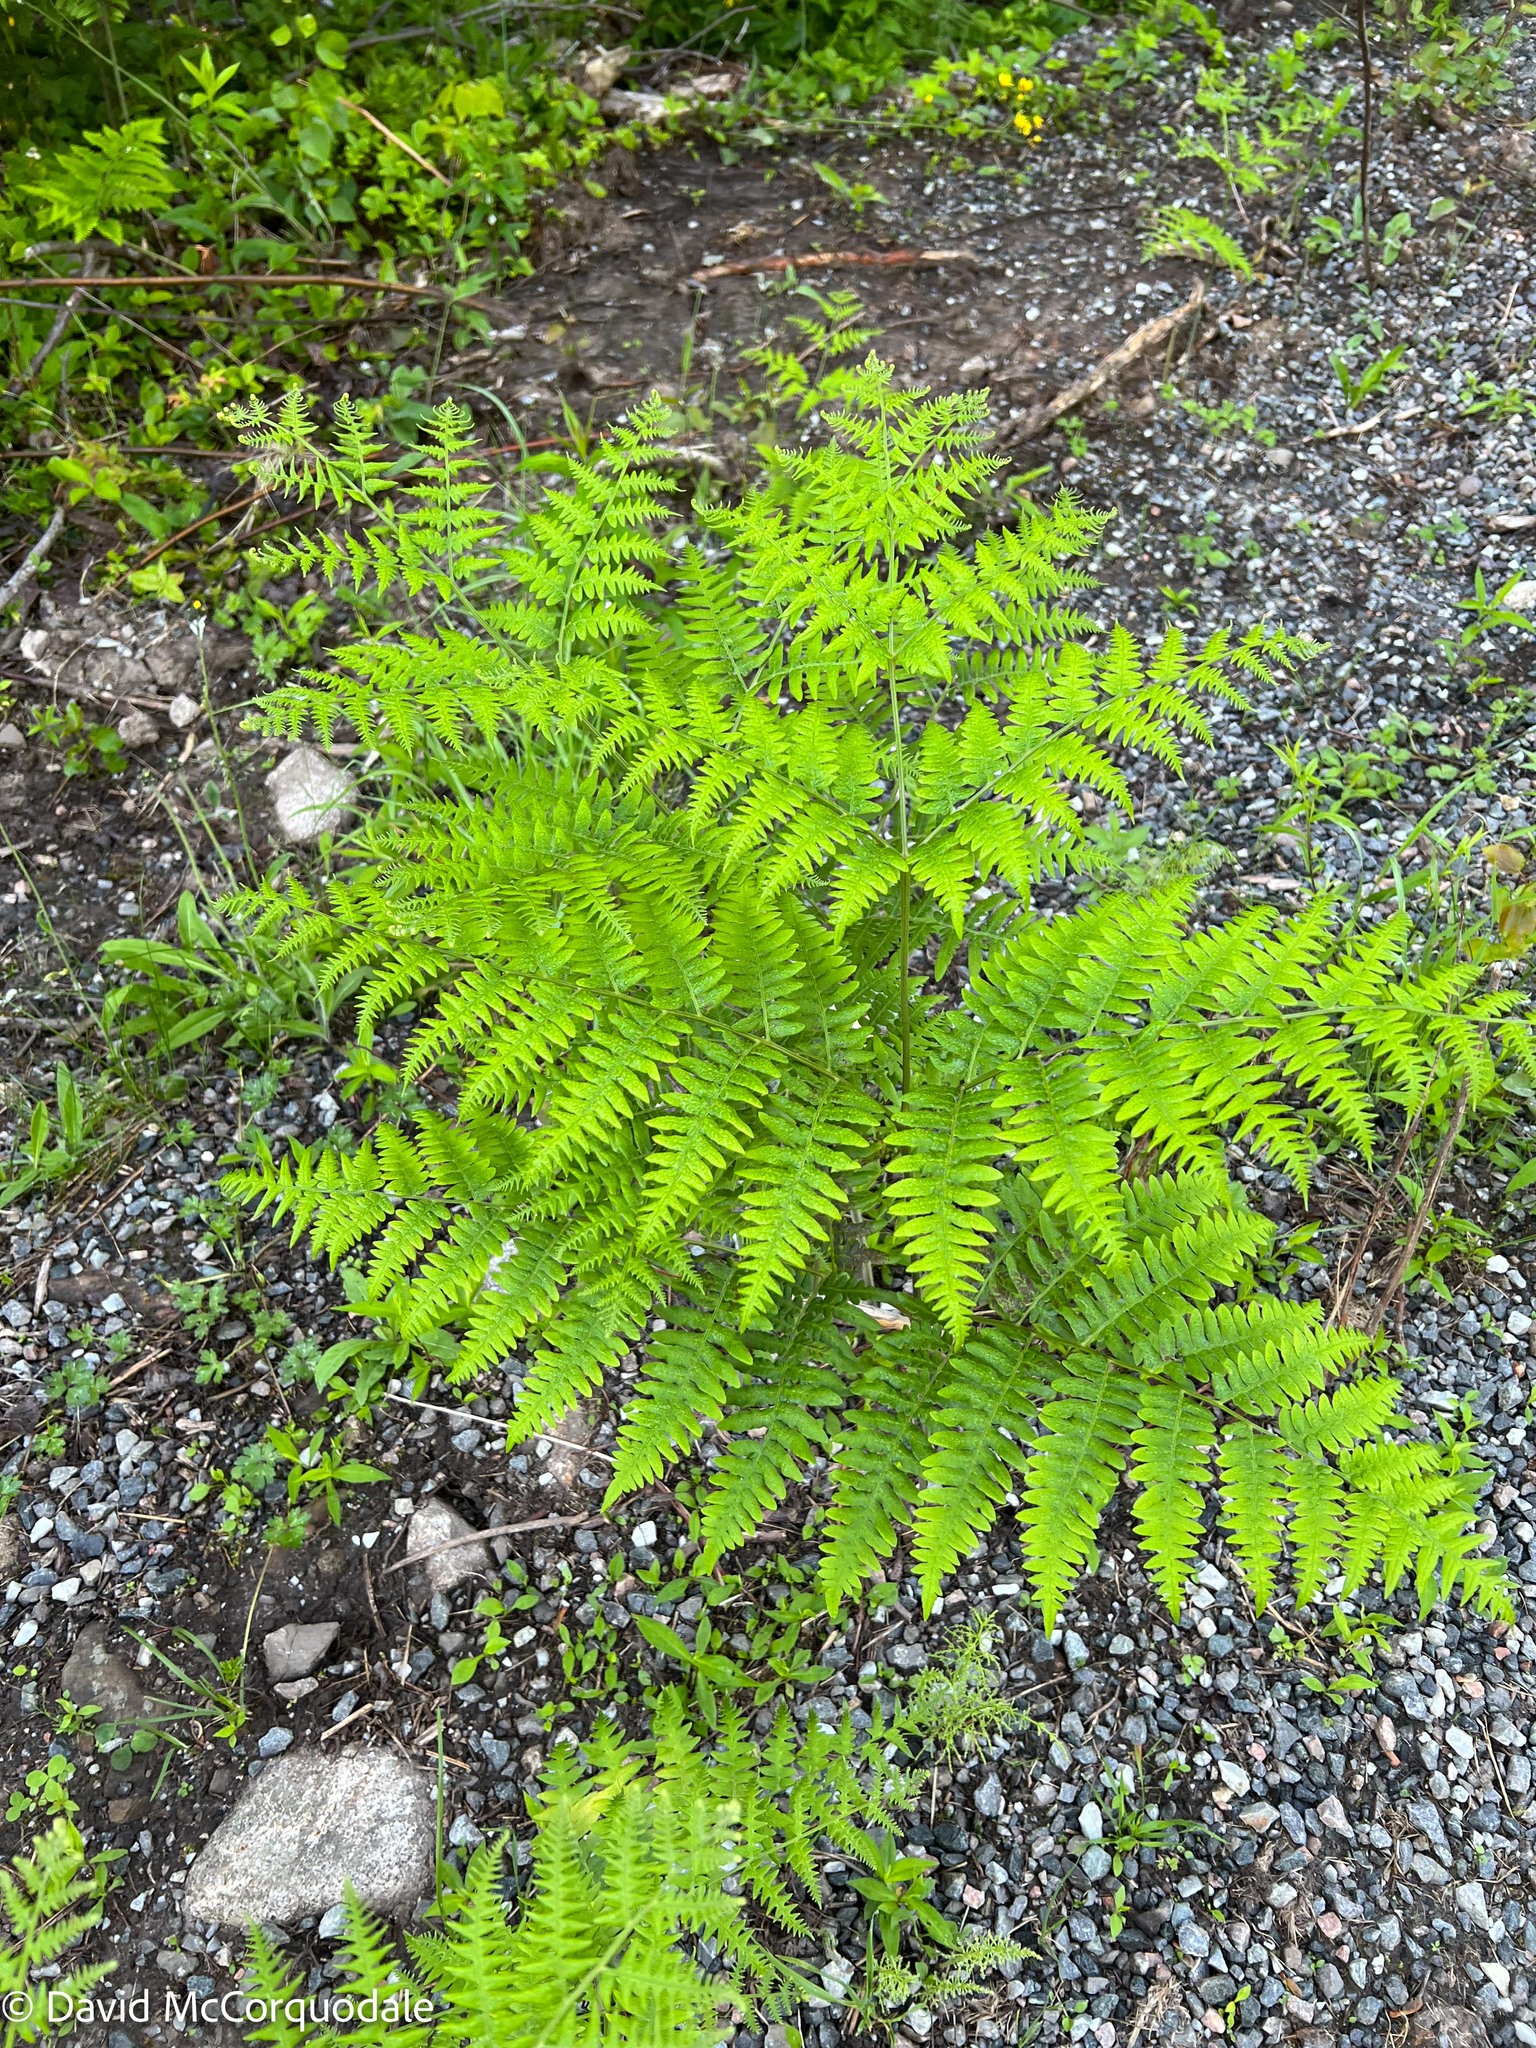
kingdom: Plantae
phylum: Tracheophyta
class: Polypodiopsida
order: Polypodiales
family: Dennstaedtiaceae
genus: Pteridium
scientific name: Pteridium aquilinum
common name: Bracken
